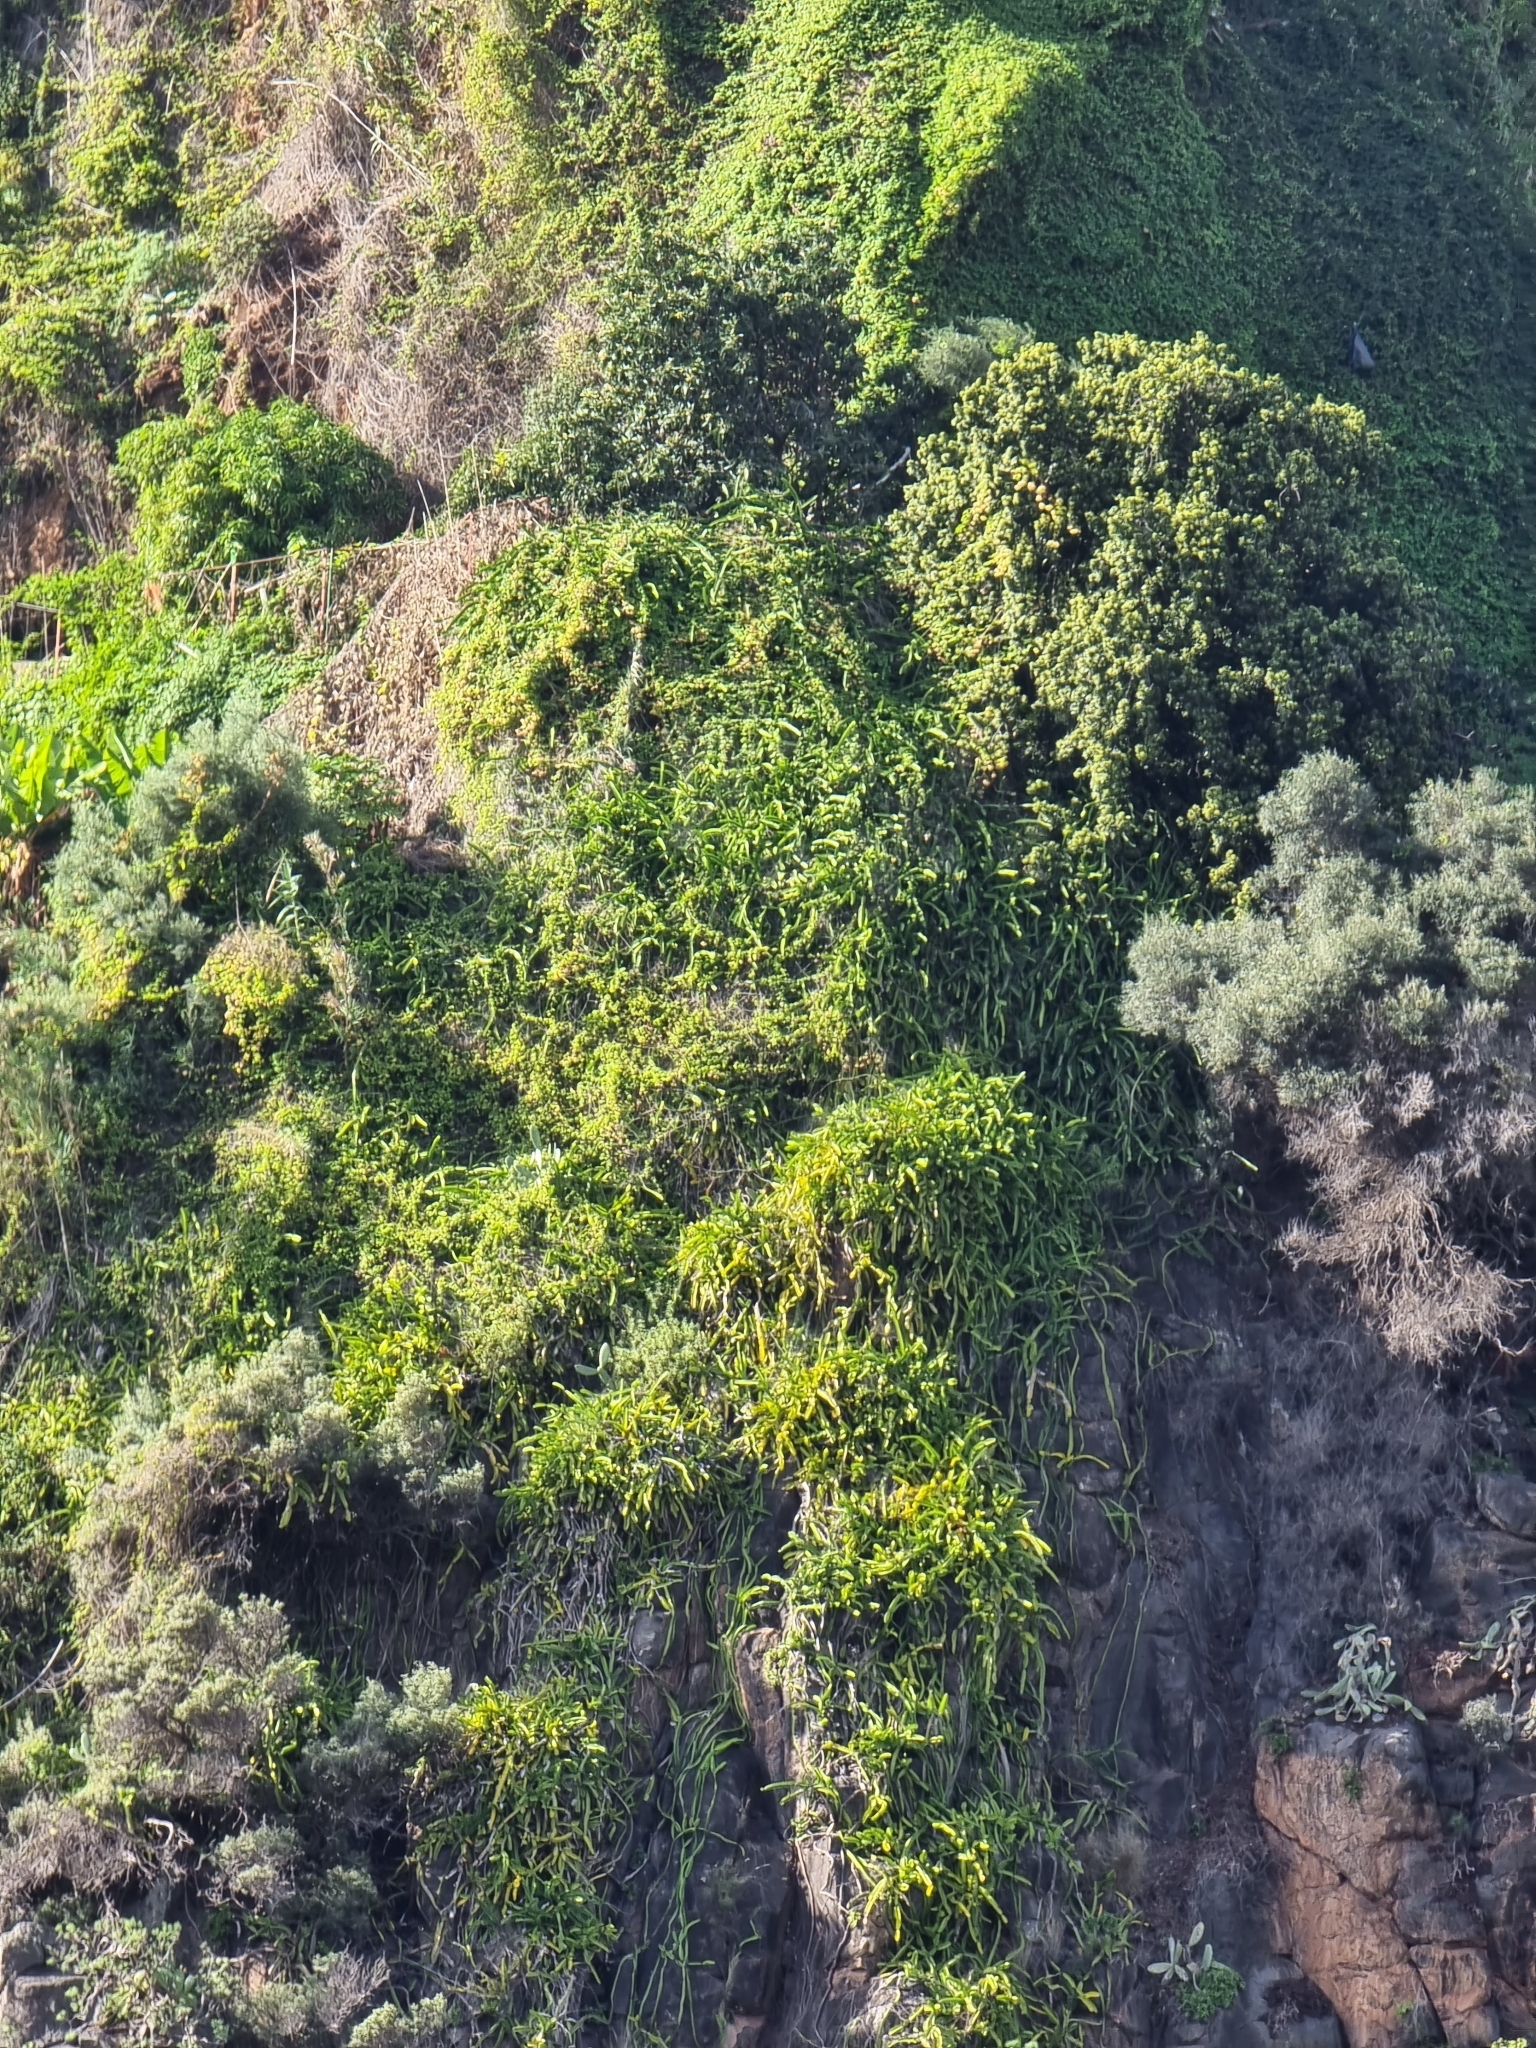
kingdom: Plantae
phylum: Tracheophyta
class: Magnoliopsida
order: Caryophyllales
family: Cactaceae
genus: Selenicereus
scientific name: Selenicereus undatus
